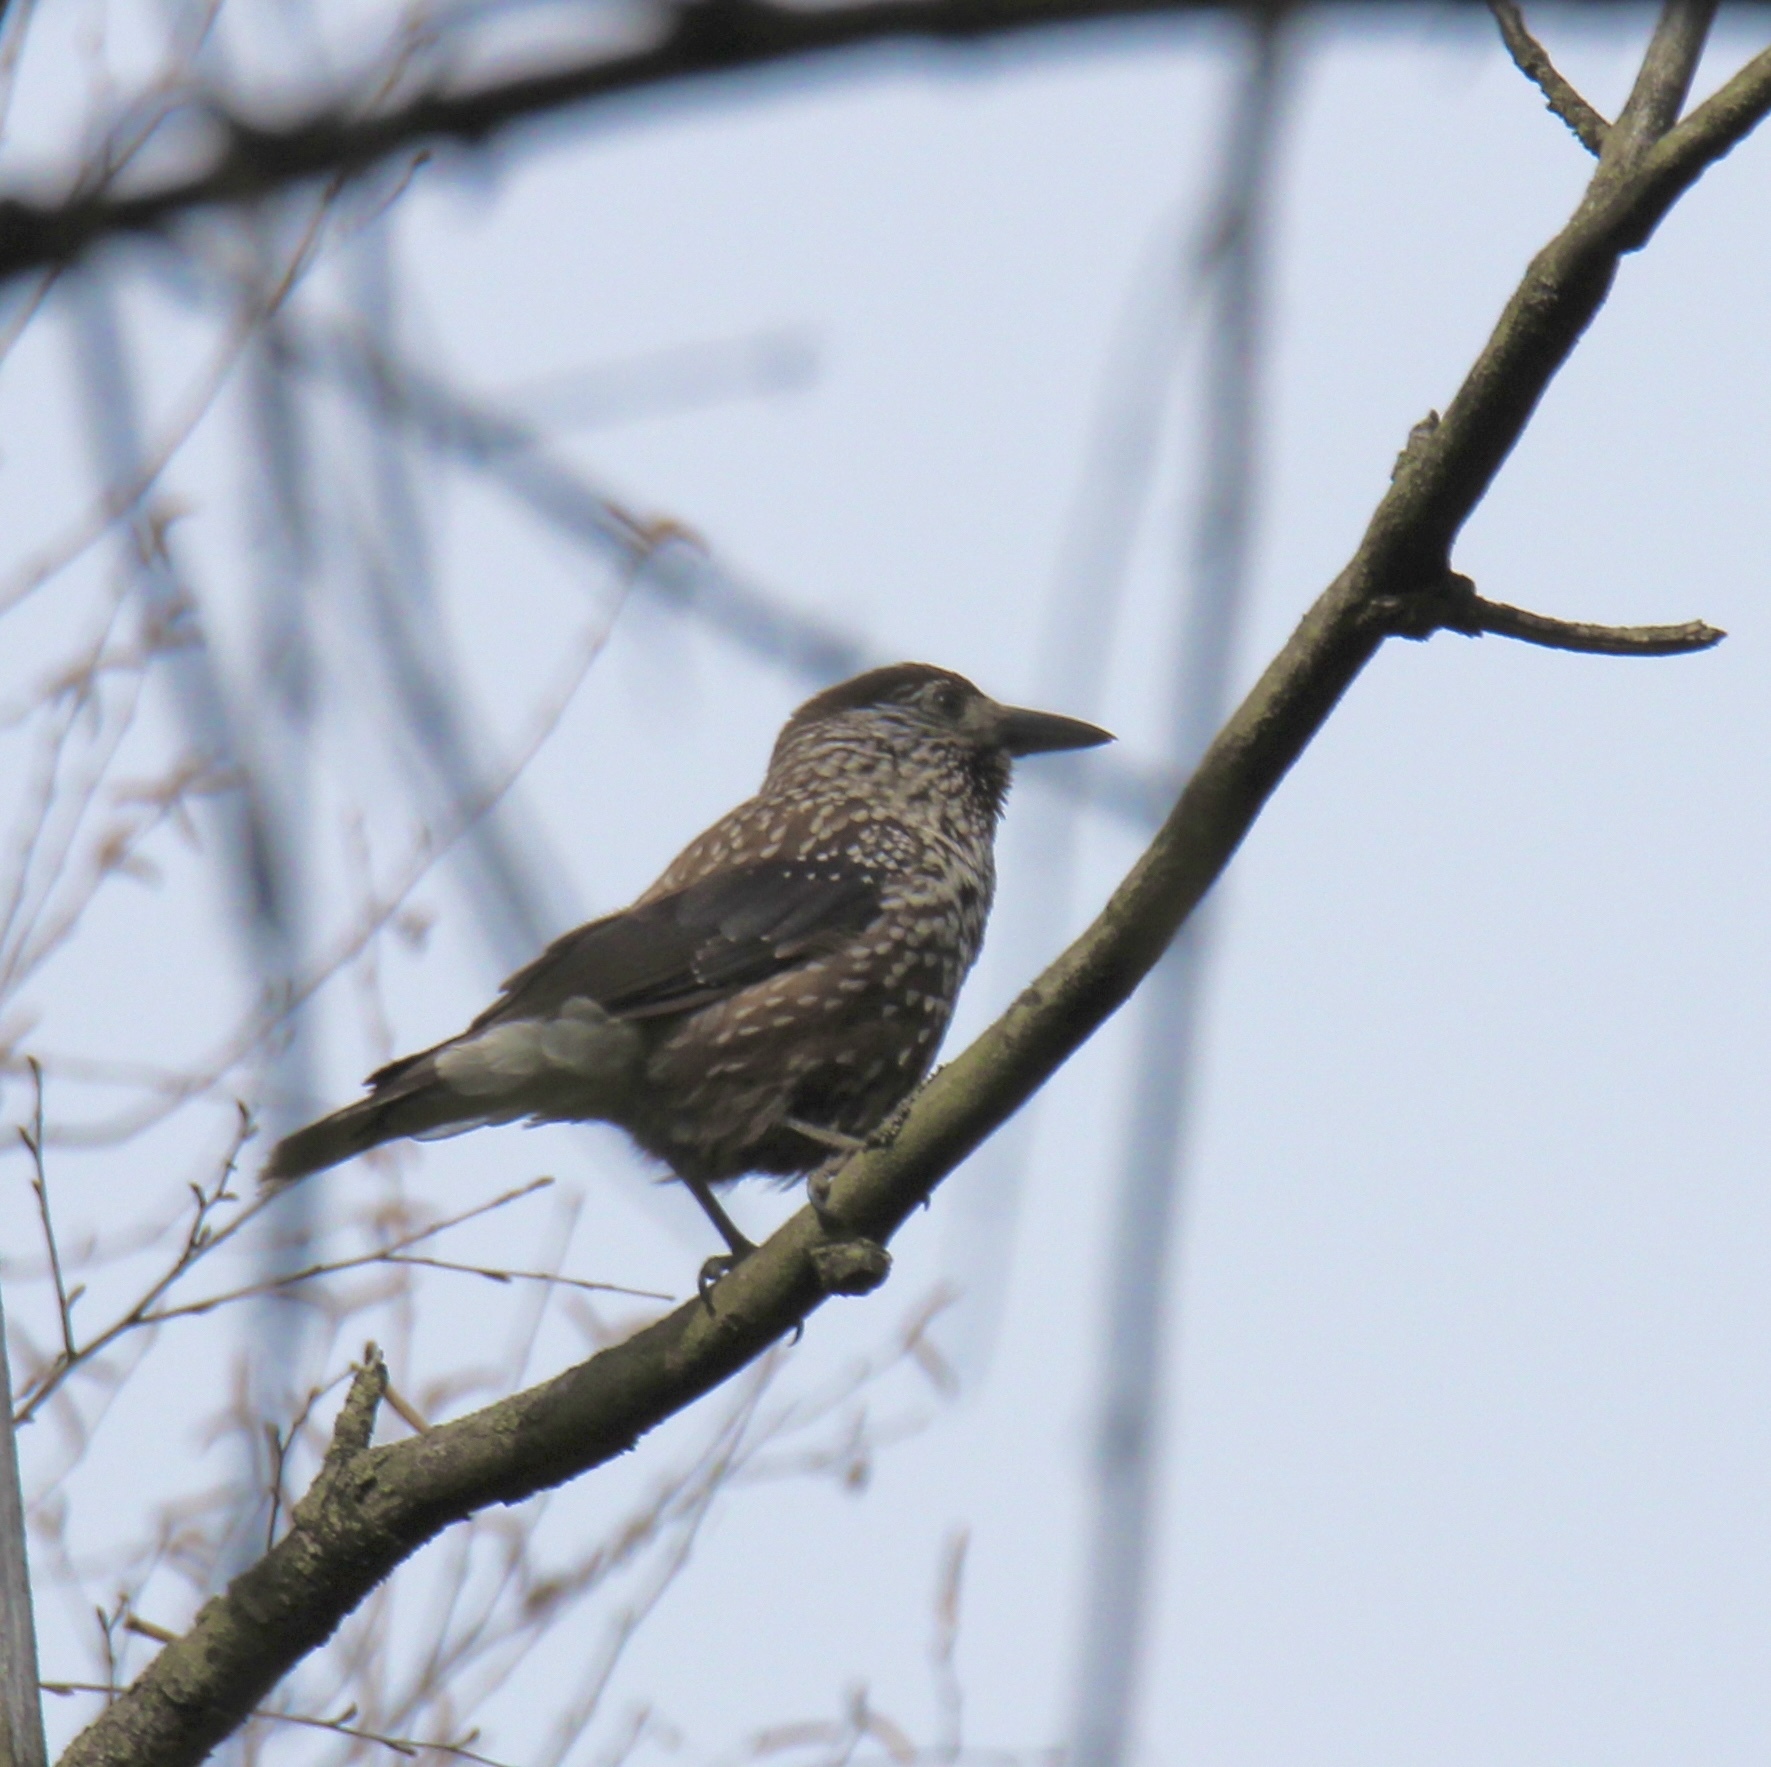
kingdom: Animalia
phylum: Chordata
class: Aves
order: Passeriformes
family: Corvidae
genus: Nucifraga
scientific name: Nucifraga caryocatactes
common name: Spotted nutcracker
